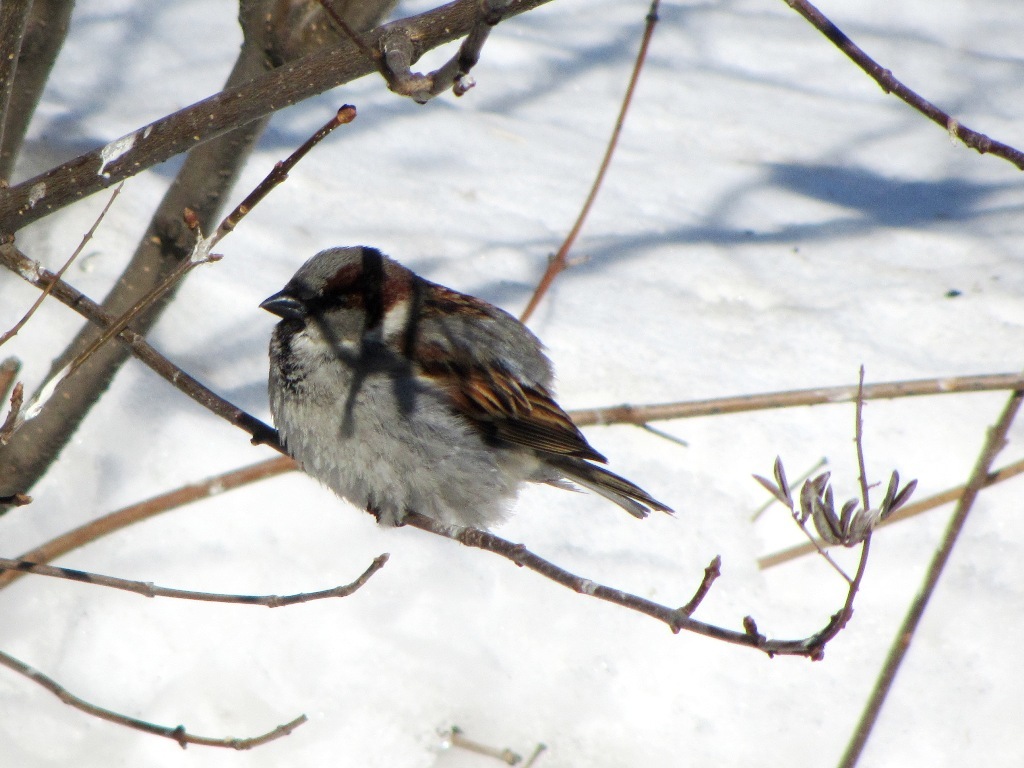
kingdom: Animalia
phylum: Chordata
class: Aves
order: Passeriformes
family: Passeridae
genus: Passer
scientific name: Passer domesticus
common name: House sparrow
